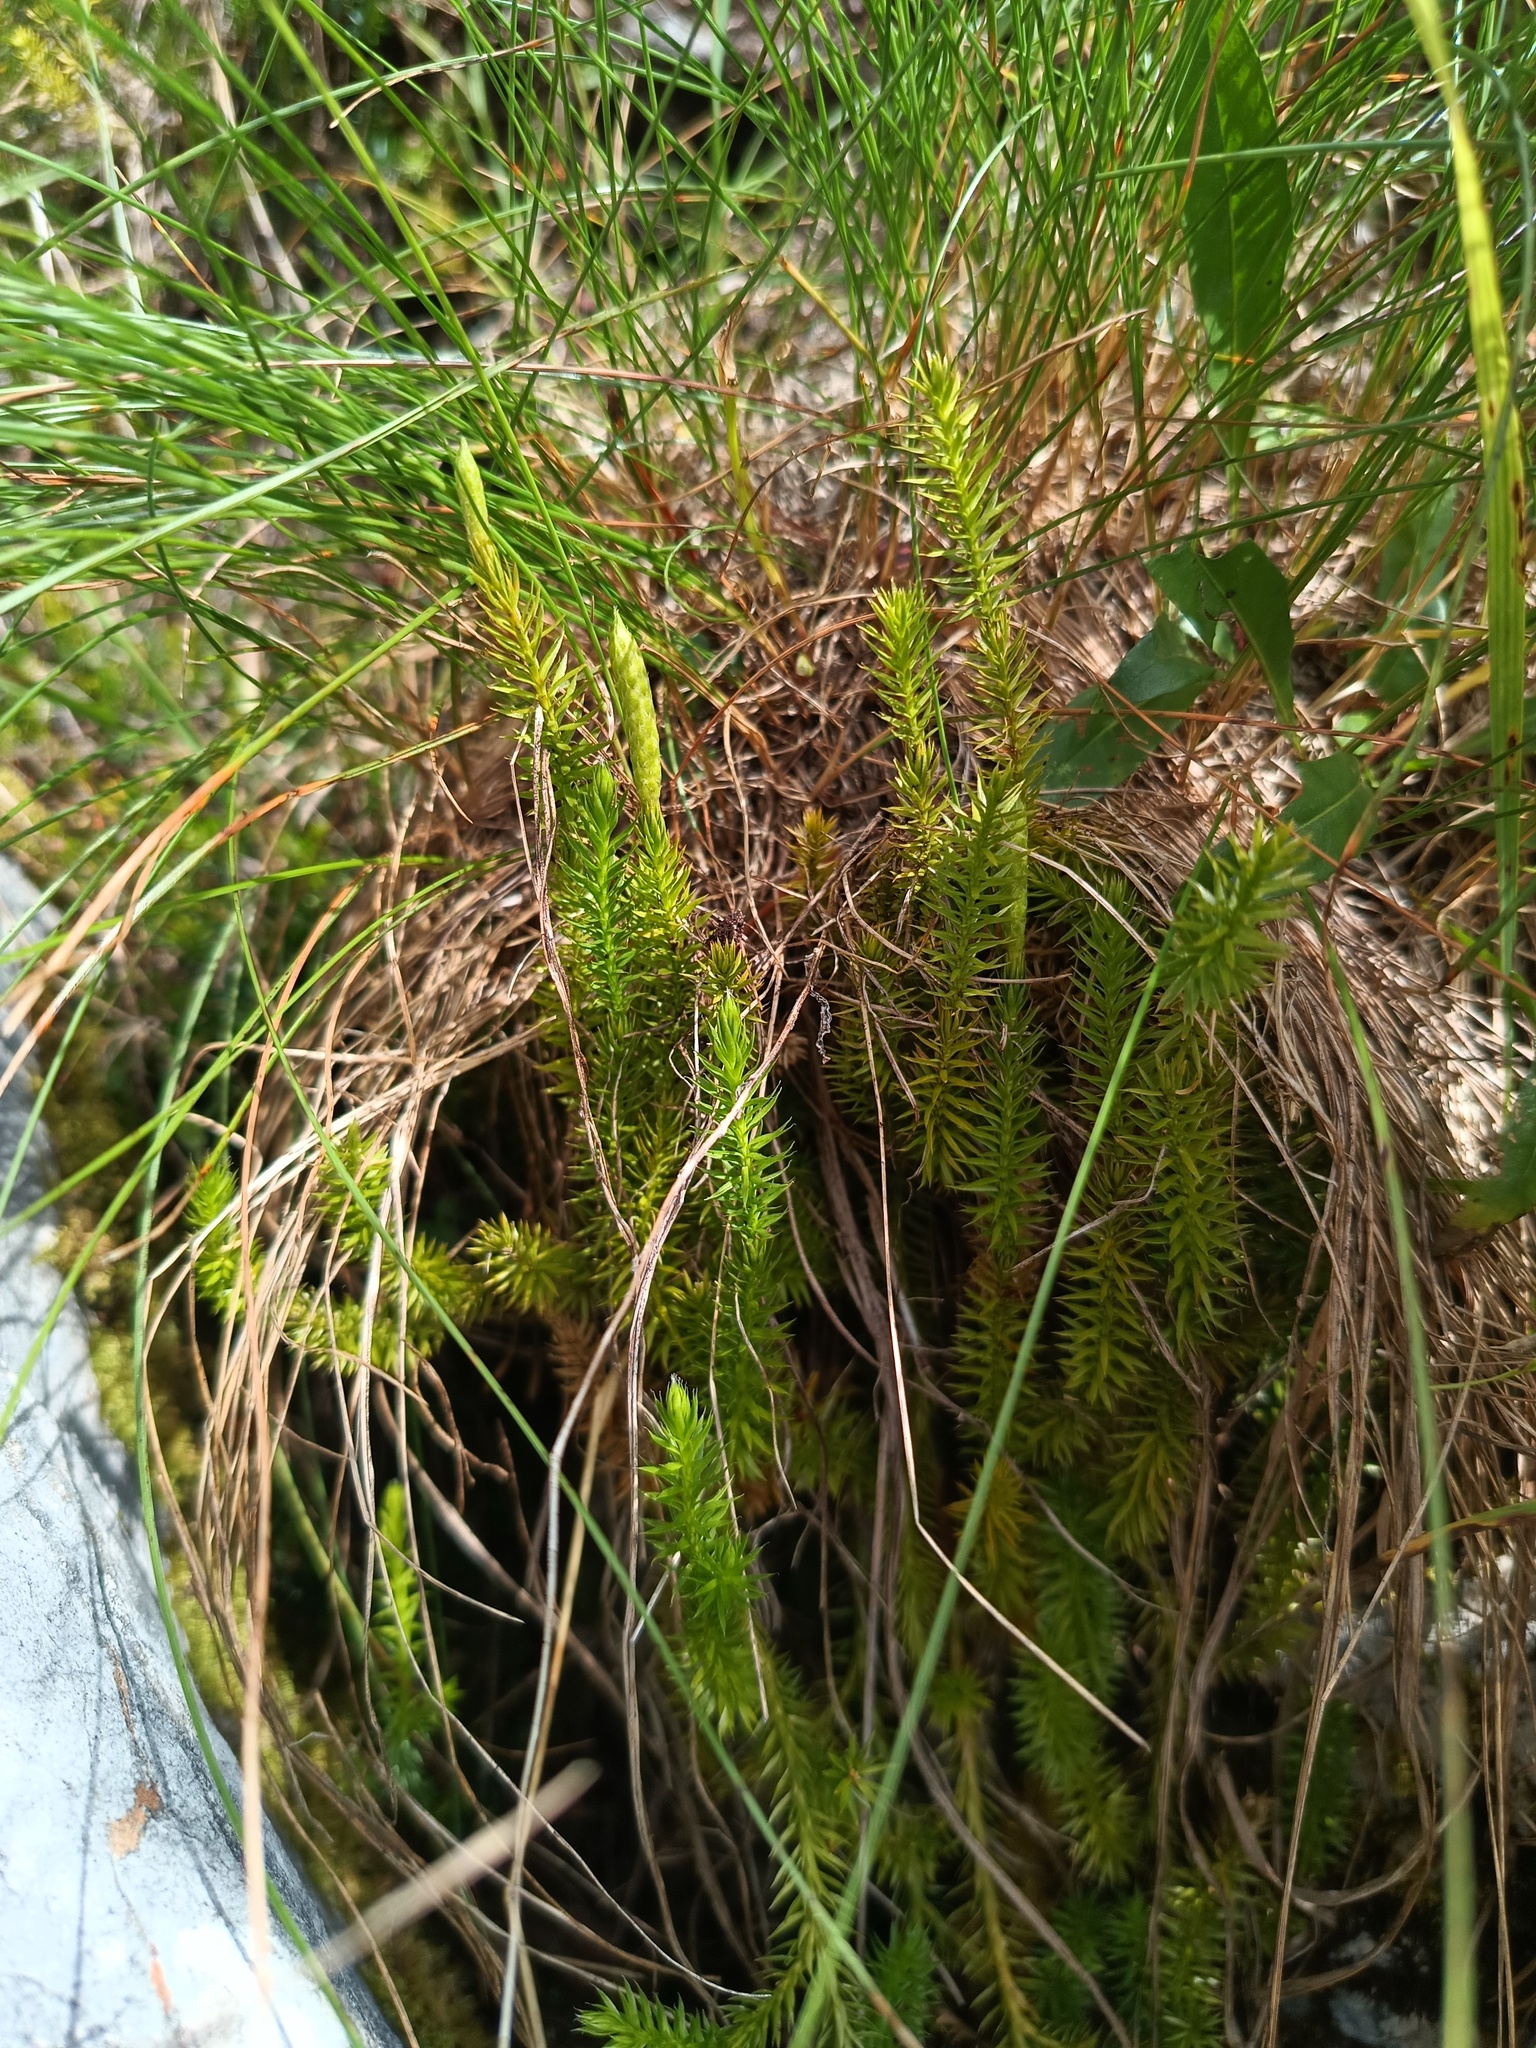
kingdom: Plantae
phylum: Tracheophyta
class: Lycopodiopsida
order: Lycopodiales
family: Lycopodiaceae
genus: Spinulum
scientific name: Spinulum annotinum
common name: Interrupted club-moss
